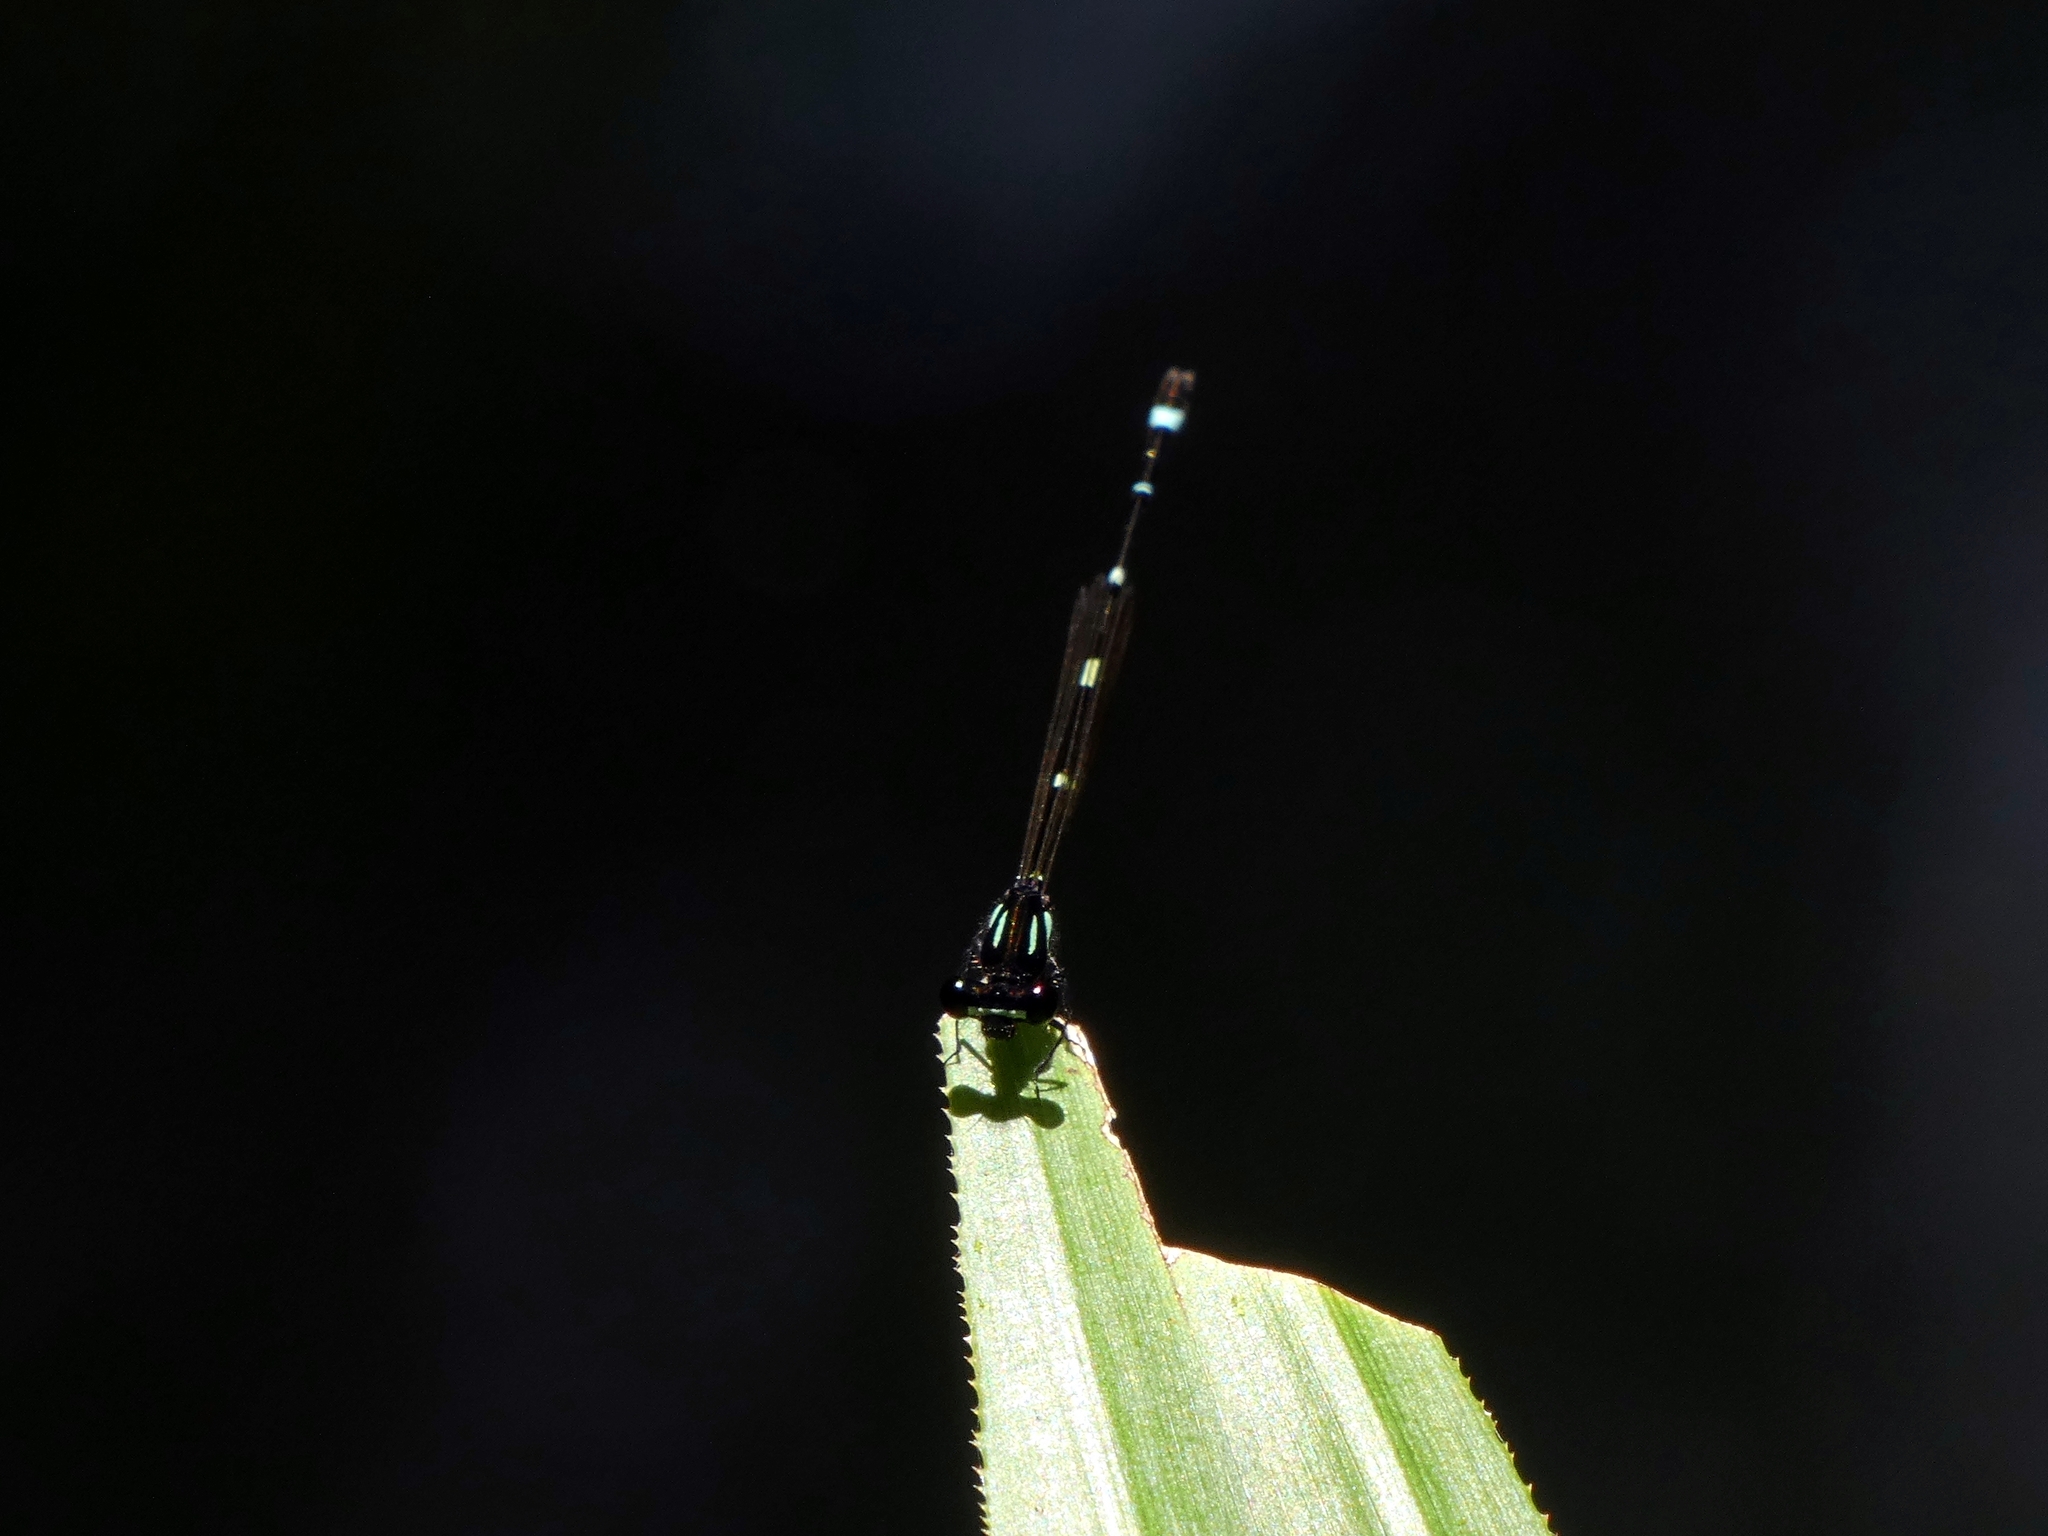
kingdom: Animalia
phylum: Arthropoda
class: Insecta
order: Odonata
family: Platycnemididae
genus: Nososticta
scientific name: Nososticta solitaria
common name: Fivespot threadtail
